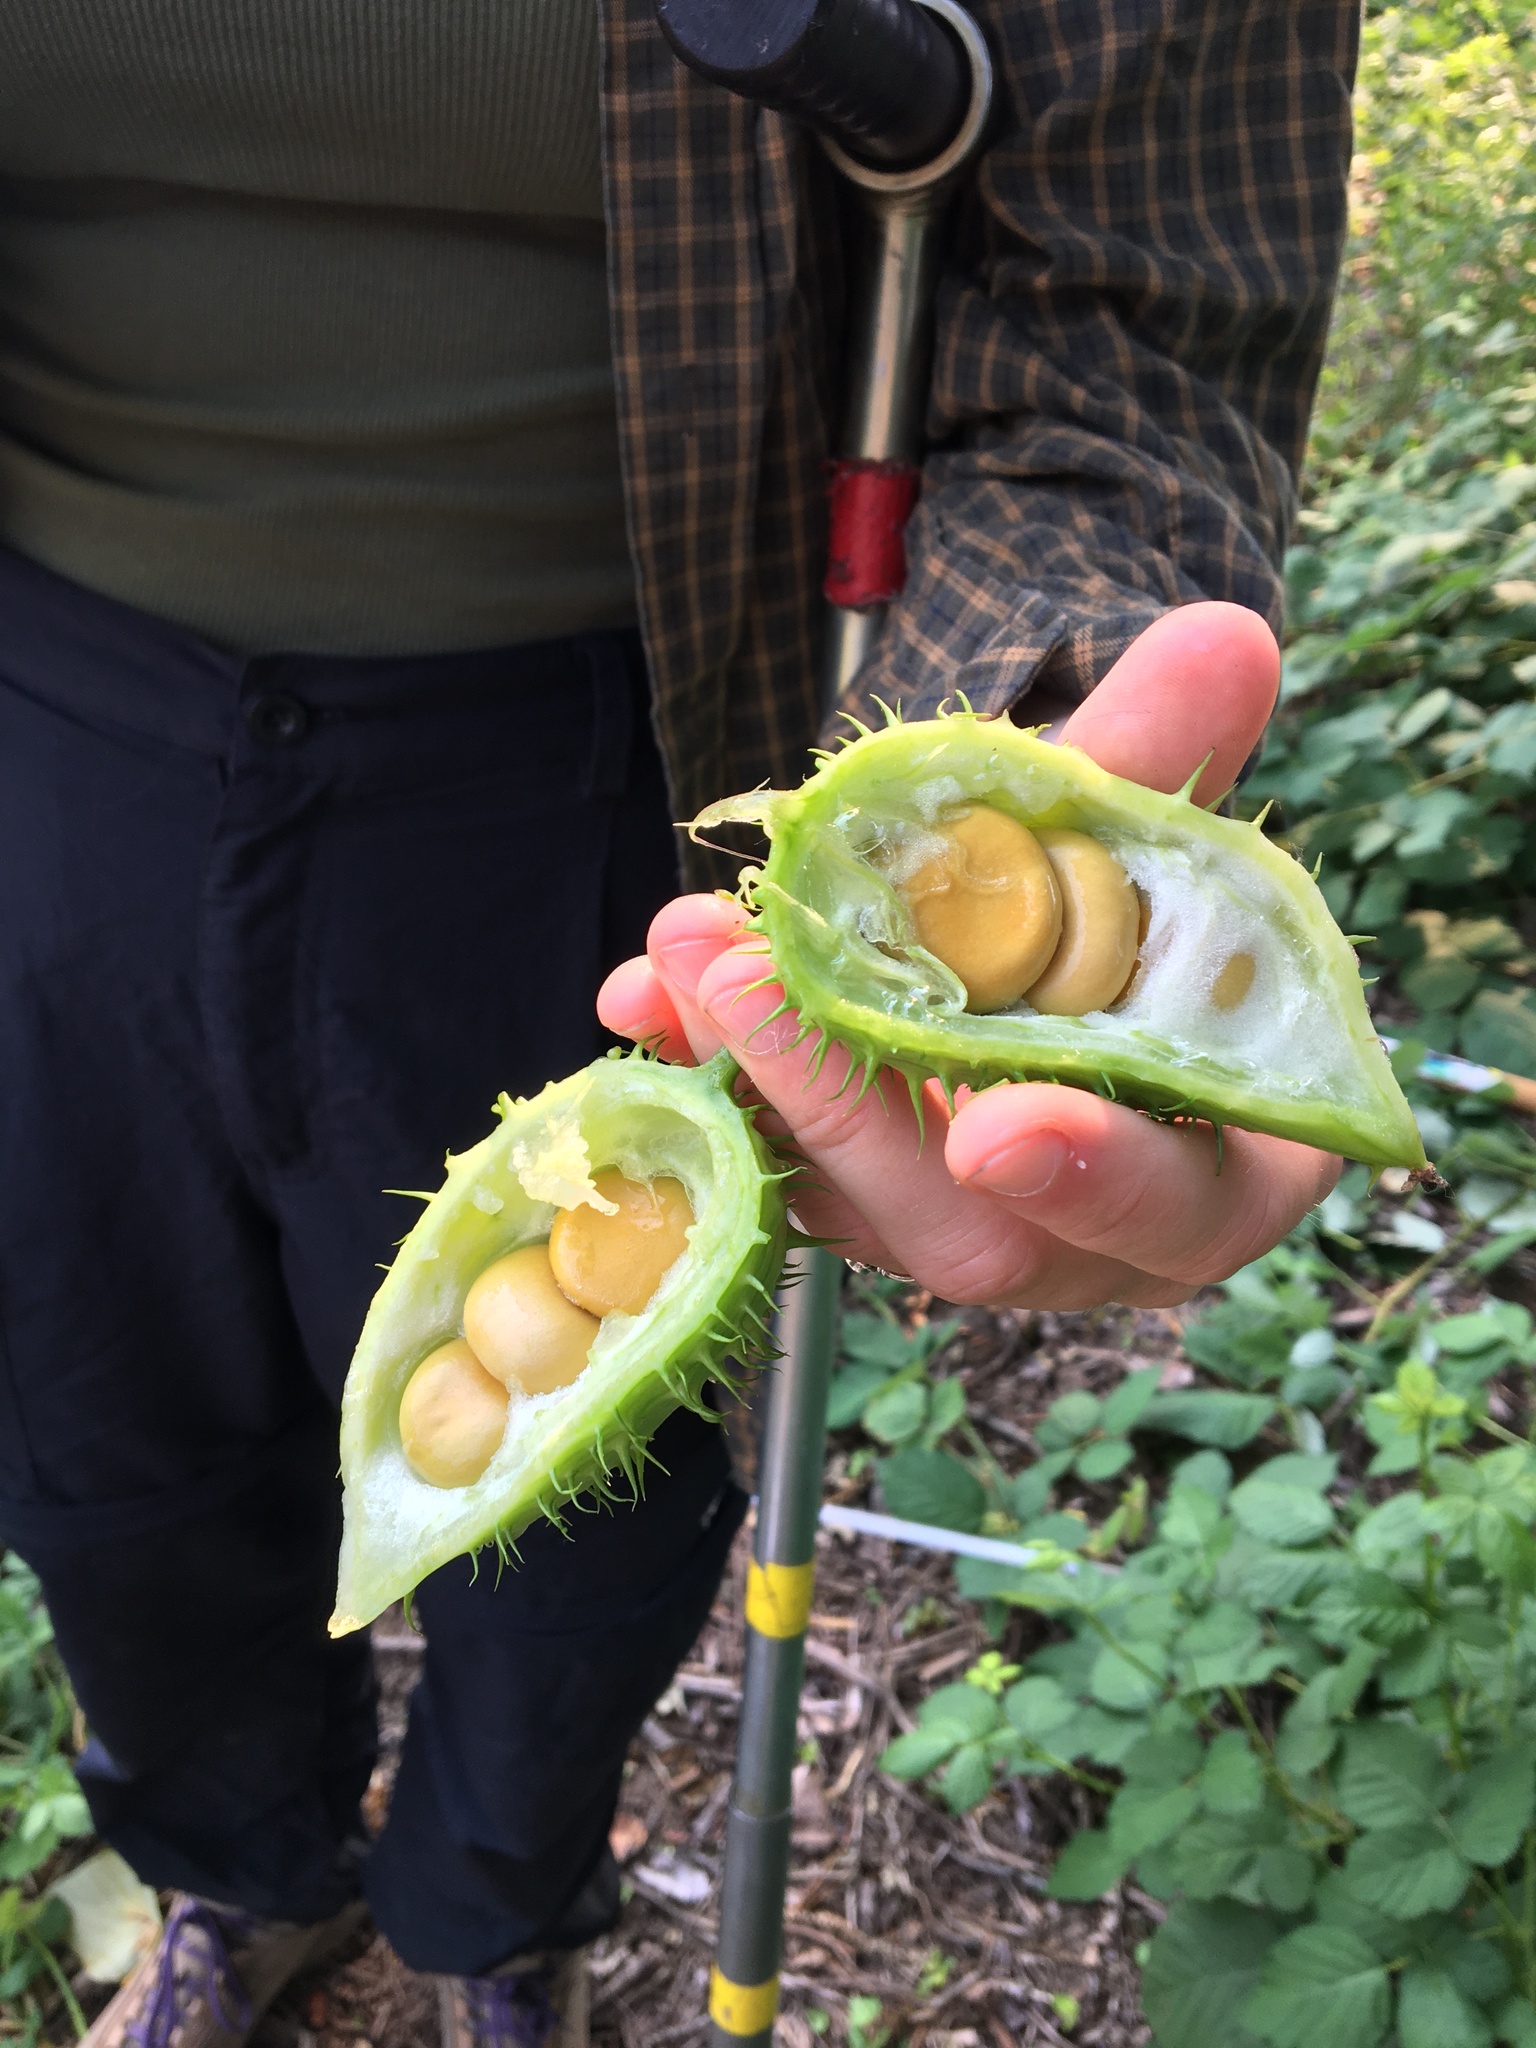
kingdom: Plantae
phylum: Tracheophyta
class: Magnoliopsida
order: Cucurbitales
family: Cucurbitaceae
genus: Marah
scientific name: Marah oregana
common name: Coastal manroot
